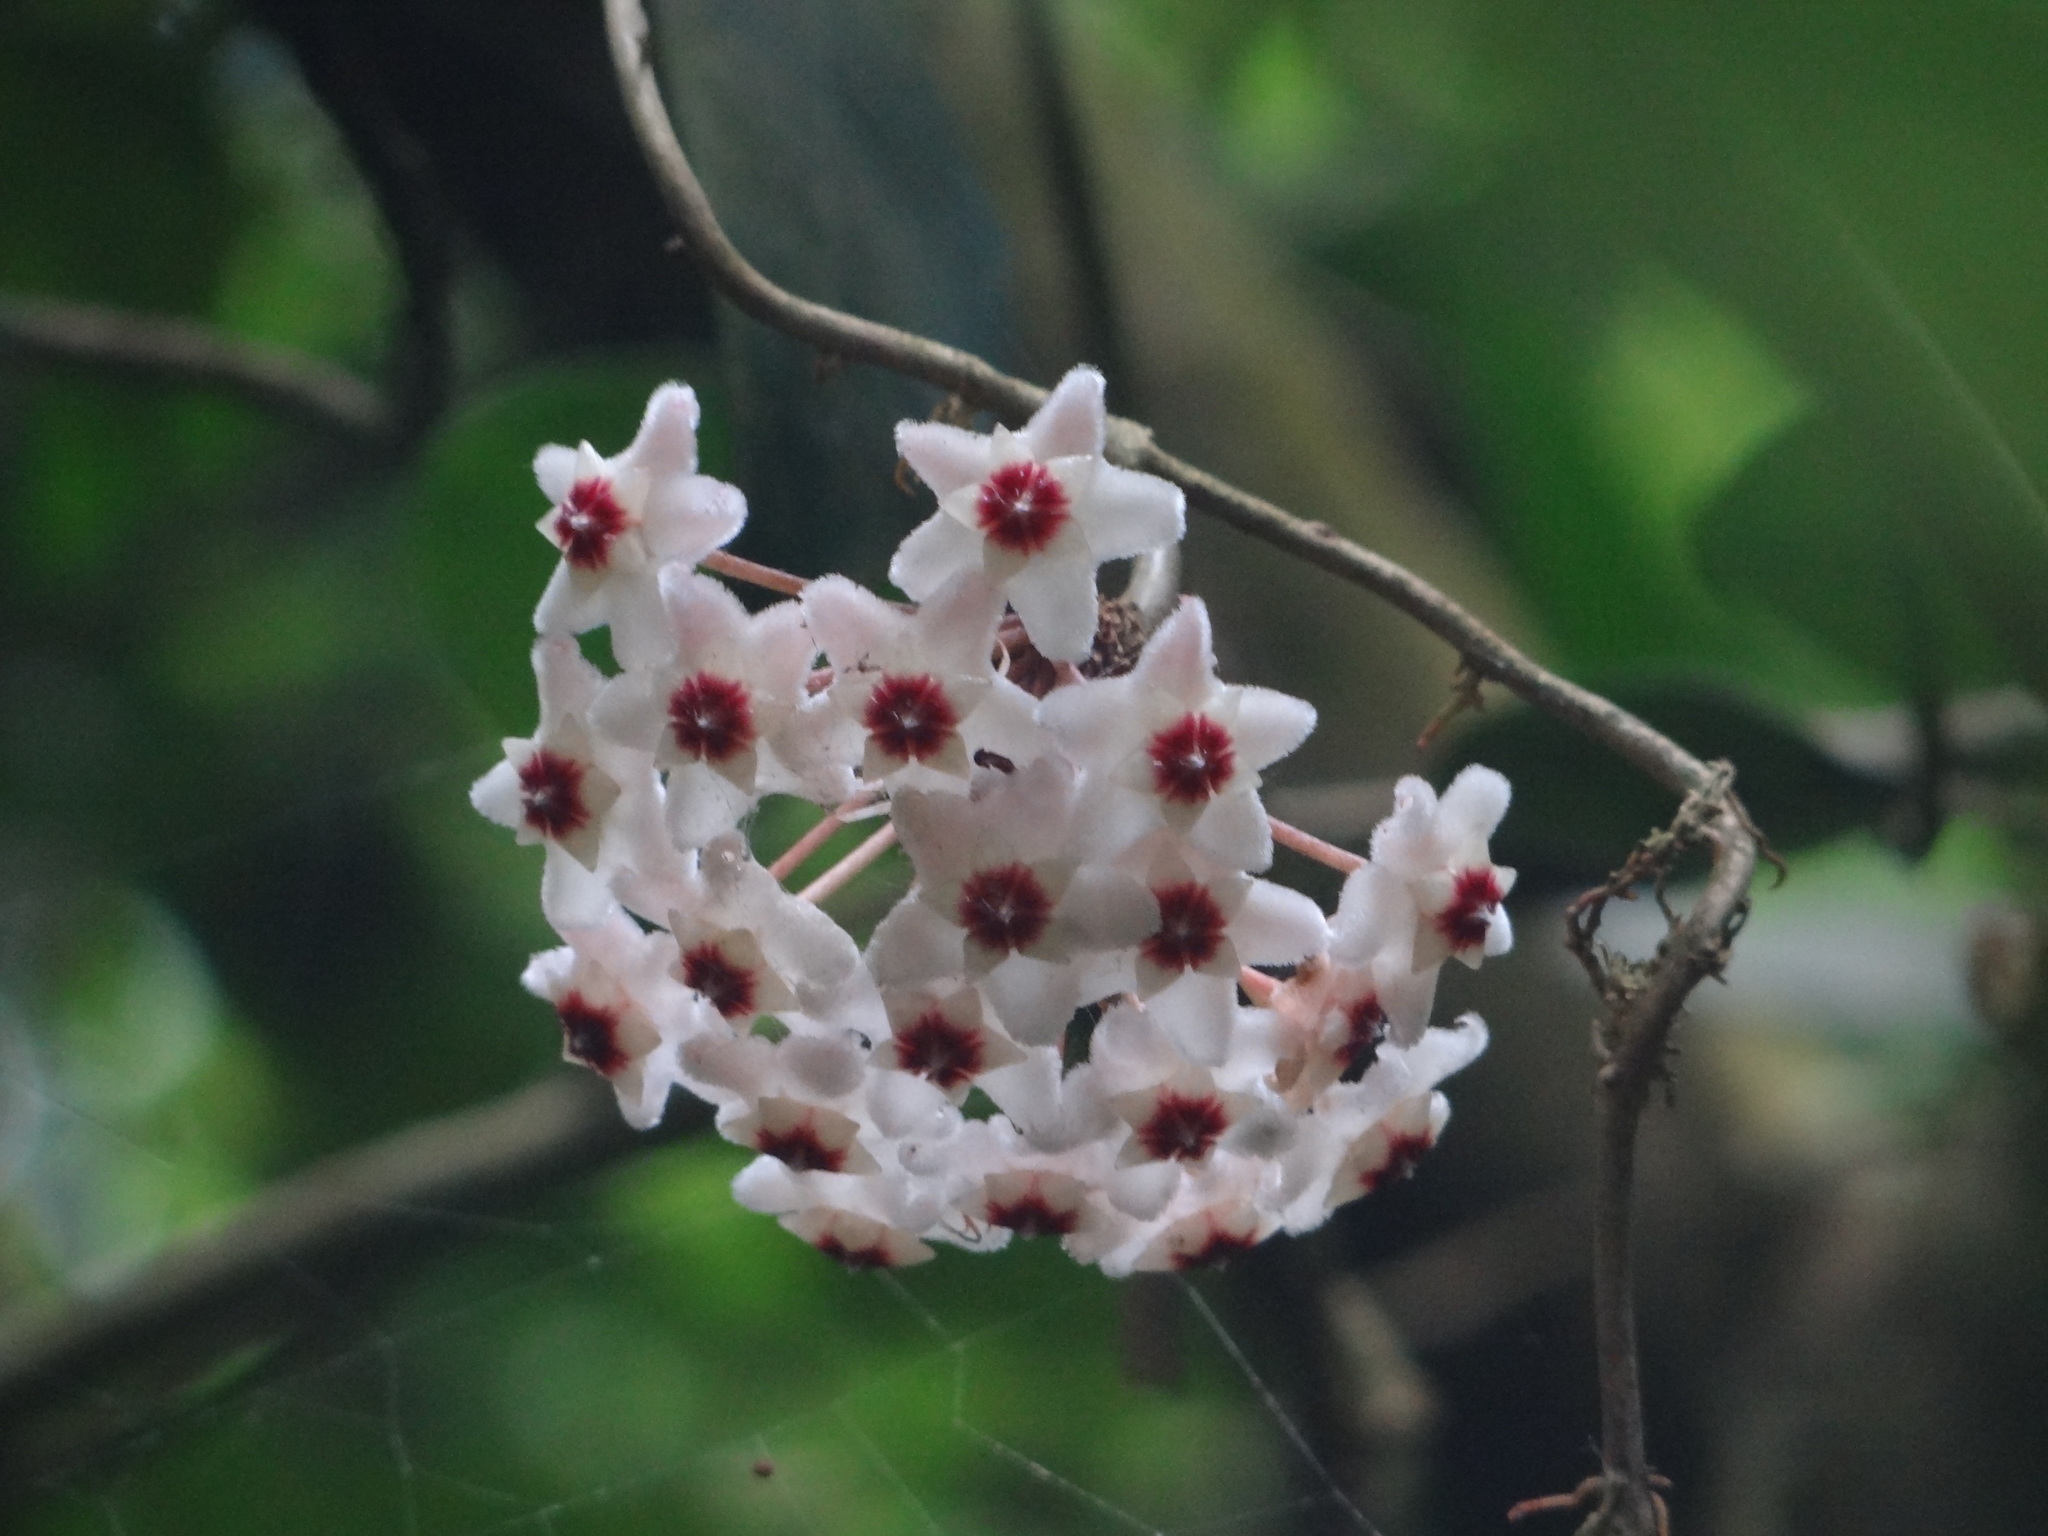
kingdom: Plantae
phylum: Tracheophyta
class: Magnoliopsida
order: Gentianales
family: Apocynaceae
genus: Hoya
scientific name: Hoya carnosa
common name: Honeyplant
